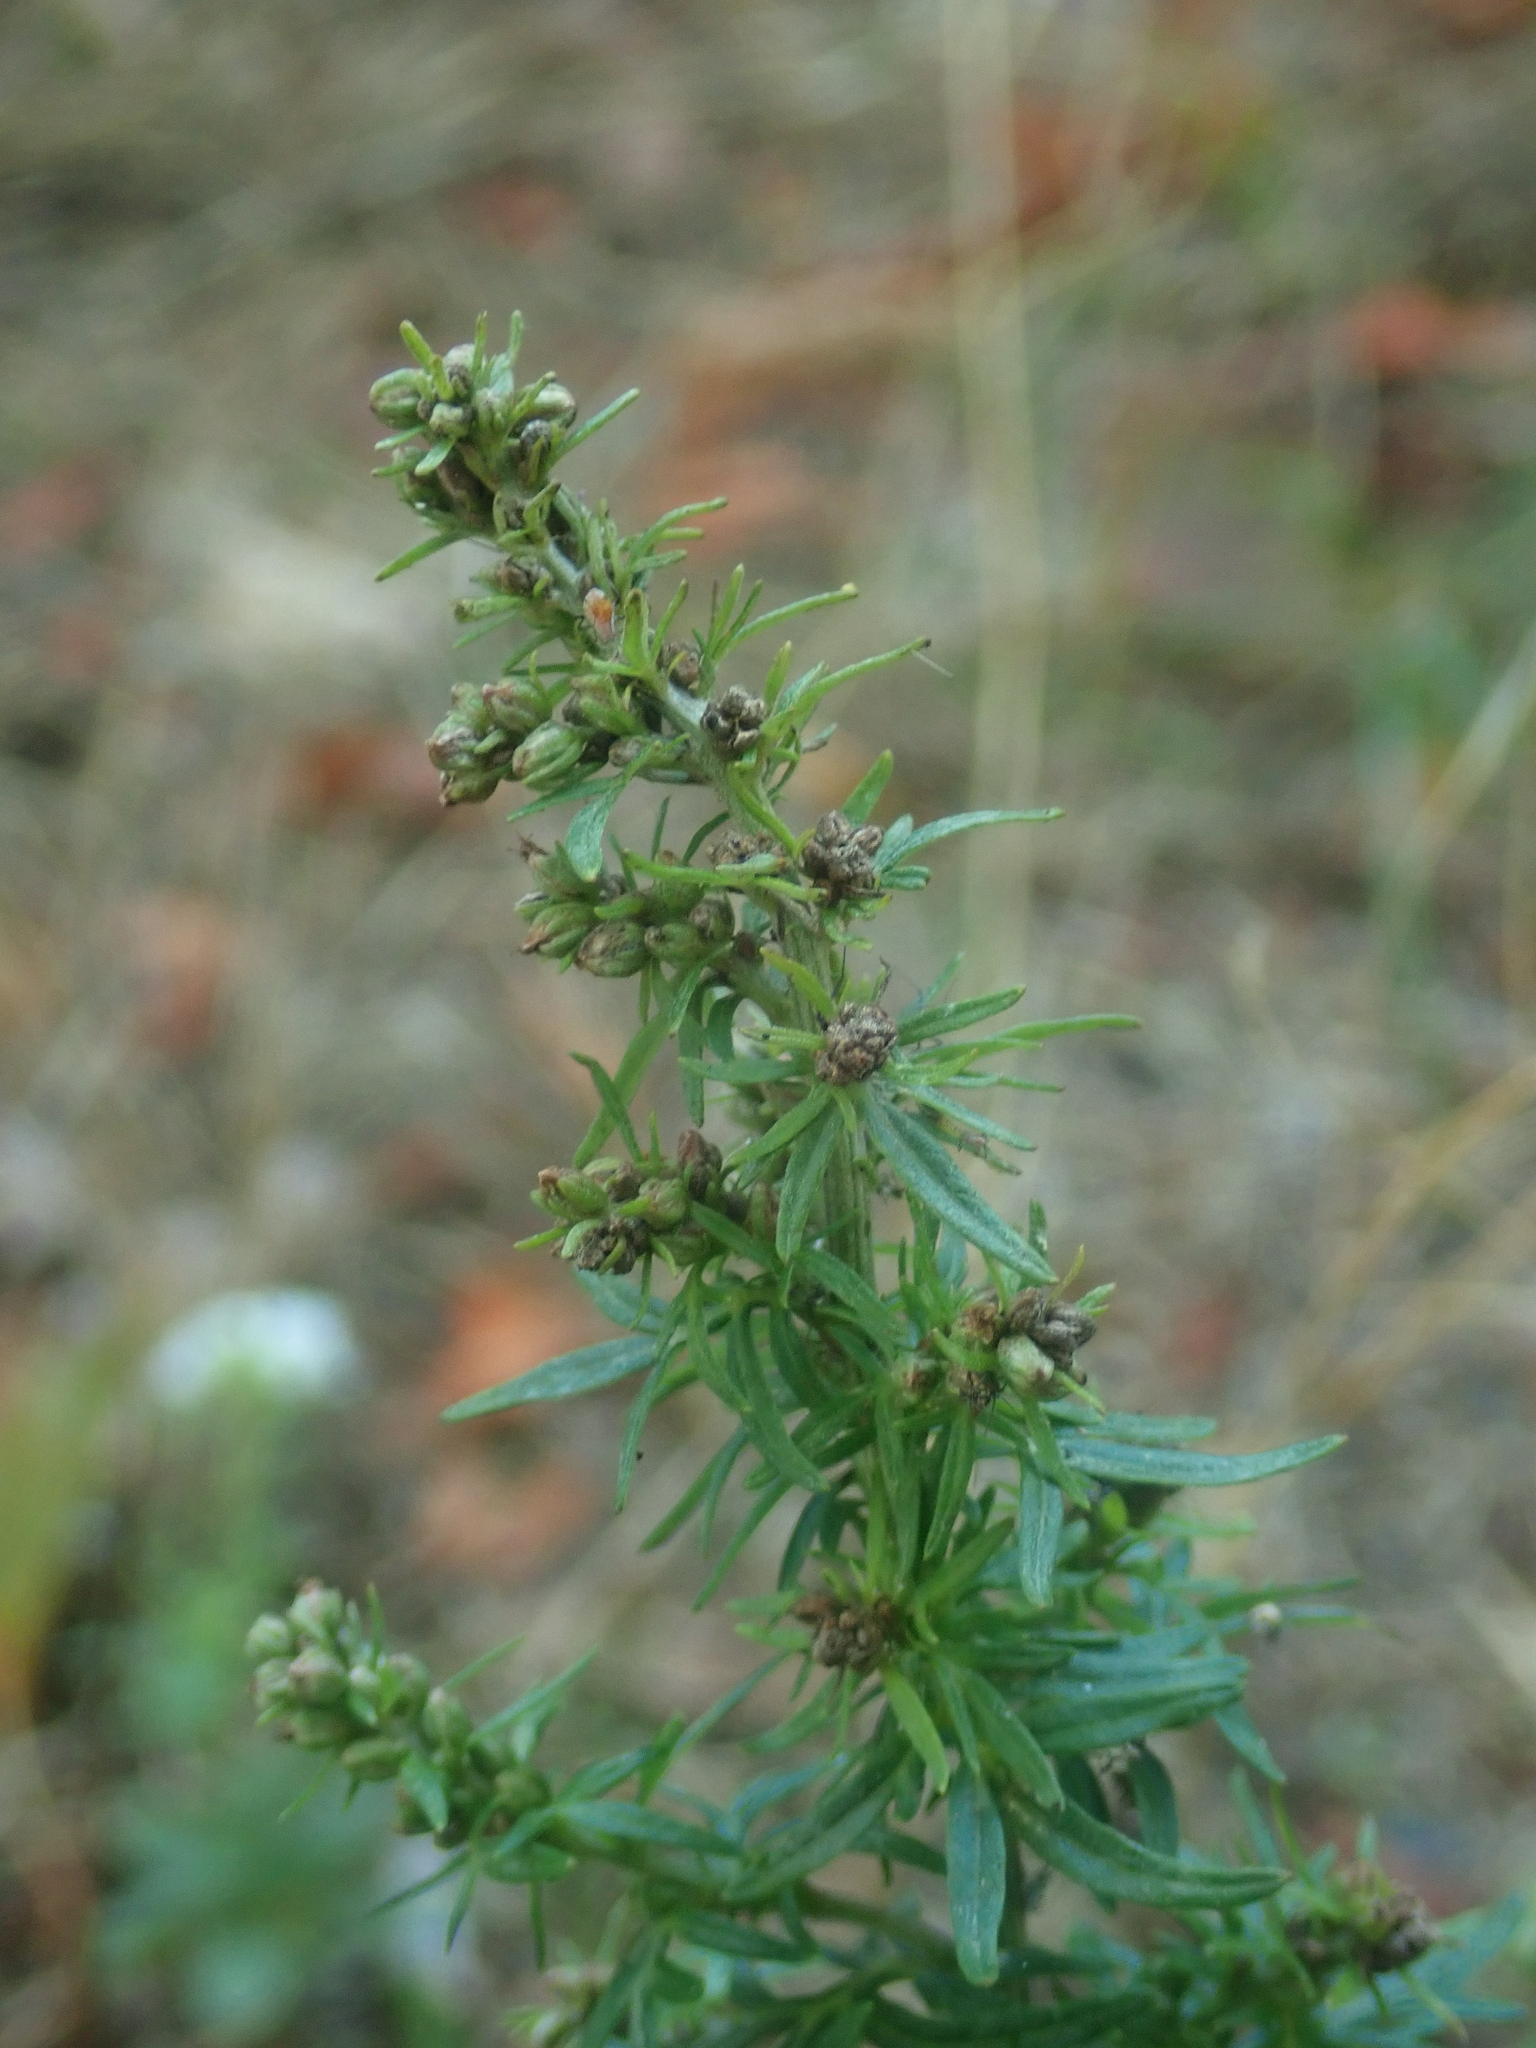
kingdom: Plantae
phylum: Tracheophyta
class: Magnoliopsida
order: Asterales
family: Asteraceae
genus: Artemisia
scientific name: Artemisia vulgaris
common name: Mugwort
